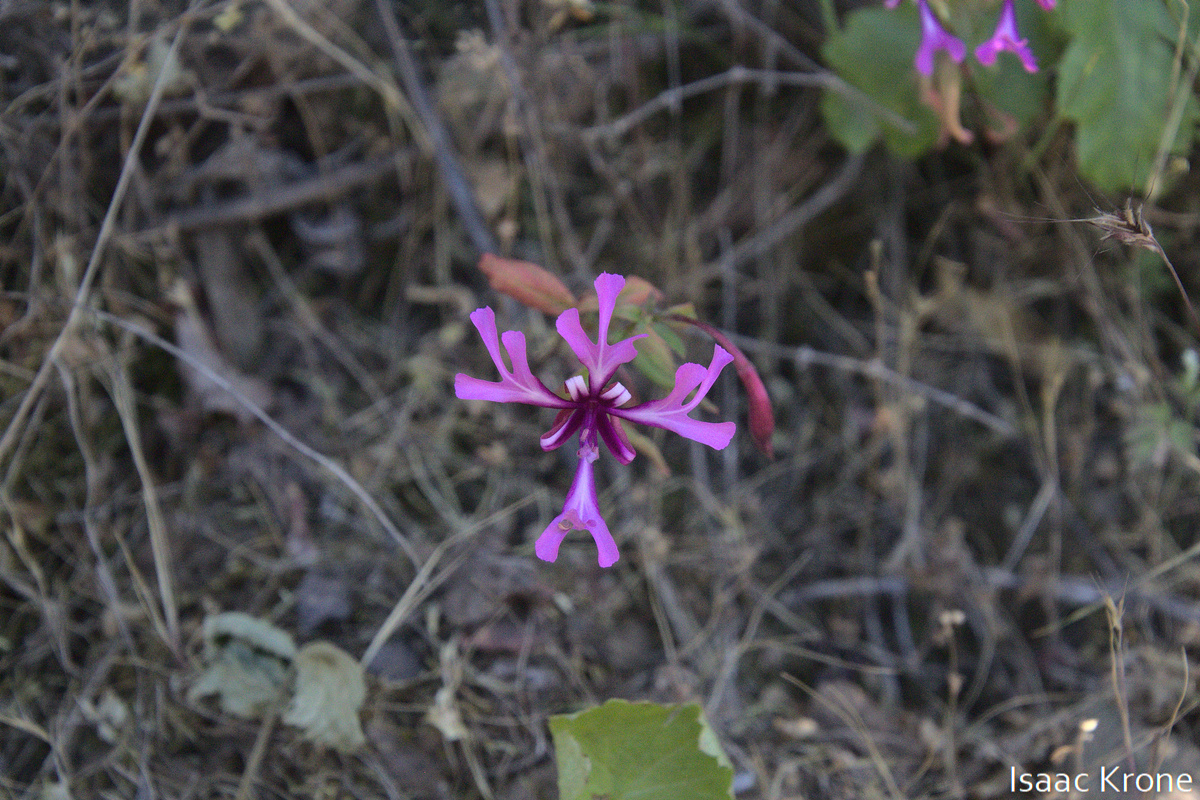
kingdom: Plantae
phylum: Tracheophyta
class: Magnoliopsida
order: Myrtales
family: Onagraceae
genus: Clarkia
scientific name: Clarkia concinna
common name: Red-ribbons
